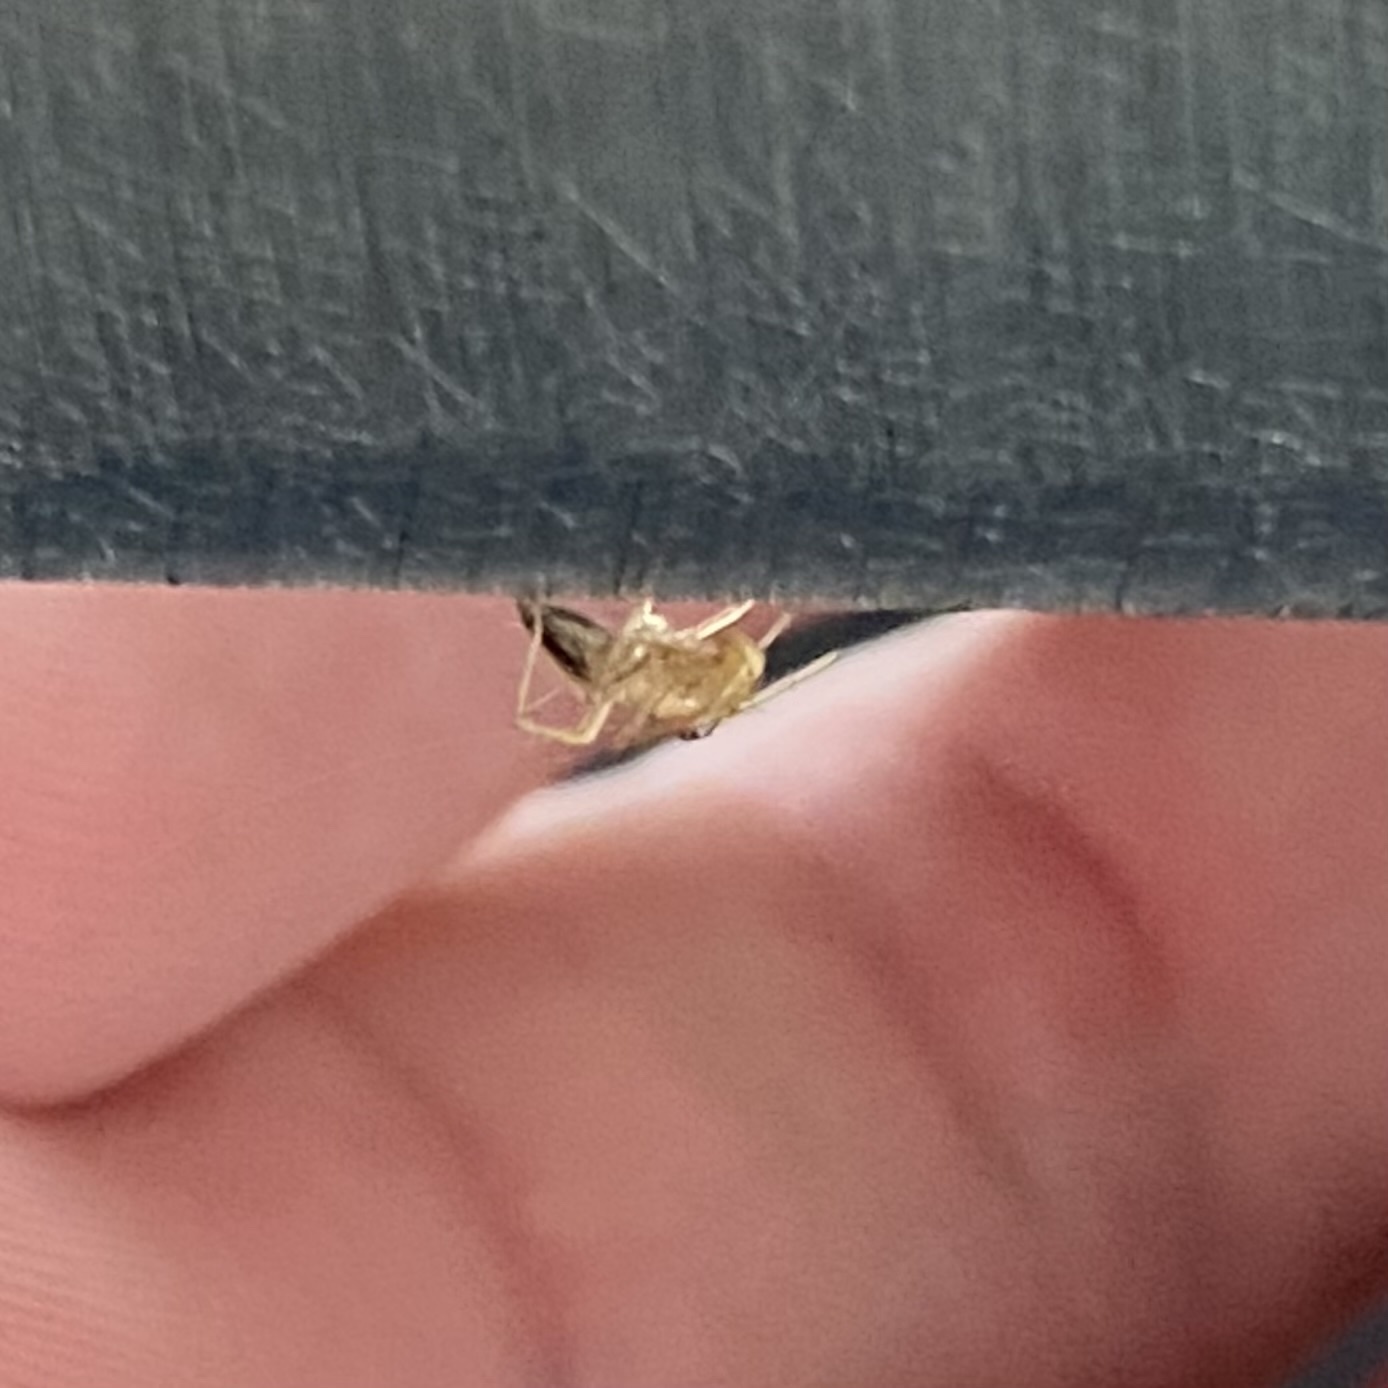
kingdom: Animalia
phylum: Arthropoda
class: Arachnida
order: Araneae
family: Oxyopidae
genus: Oxyopes
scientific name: Oxyopes salticus
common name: Lynx spiders
